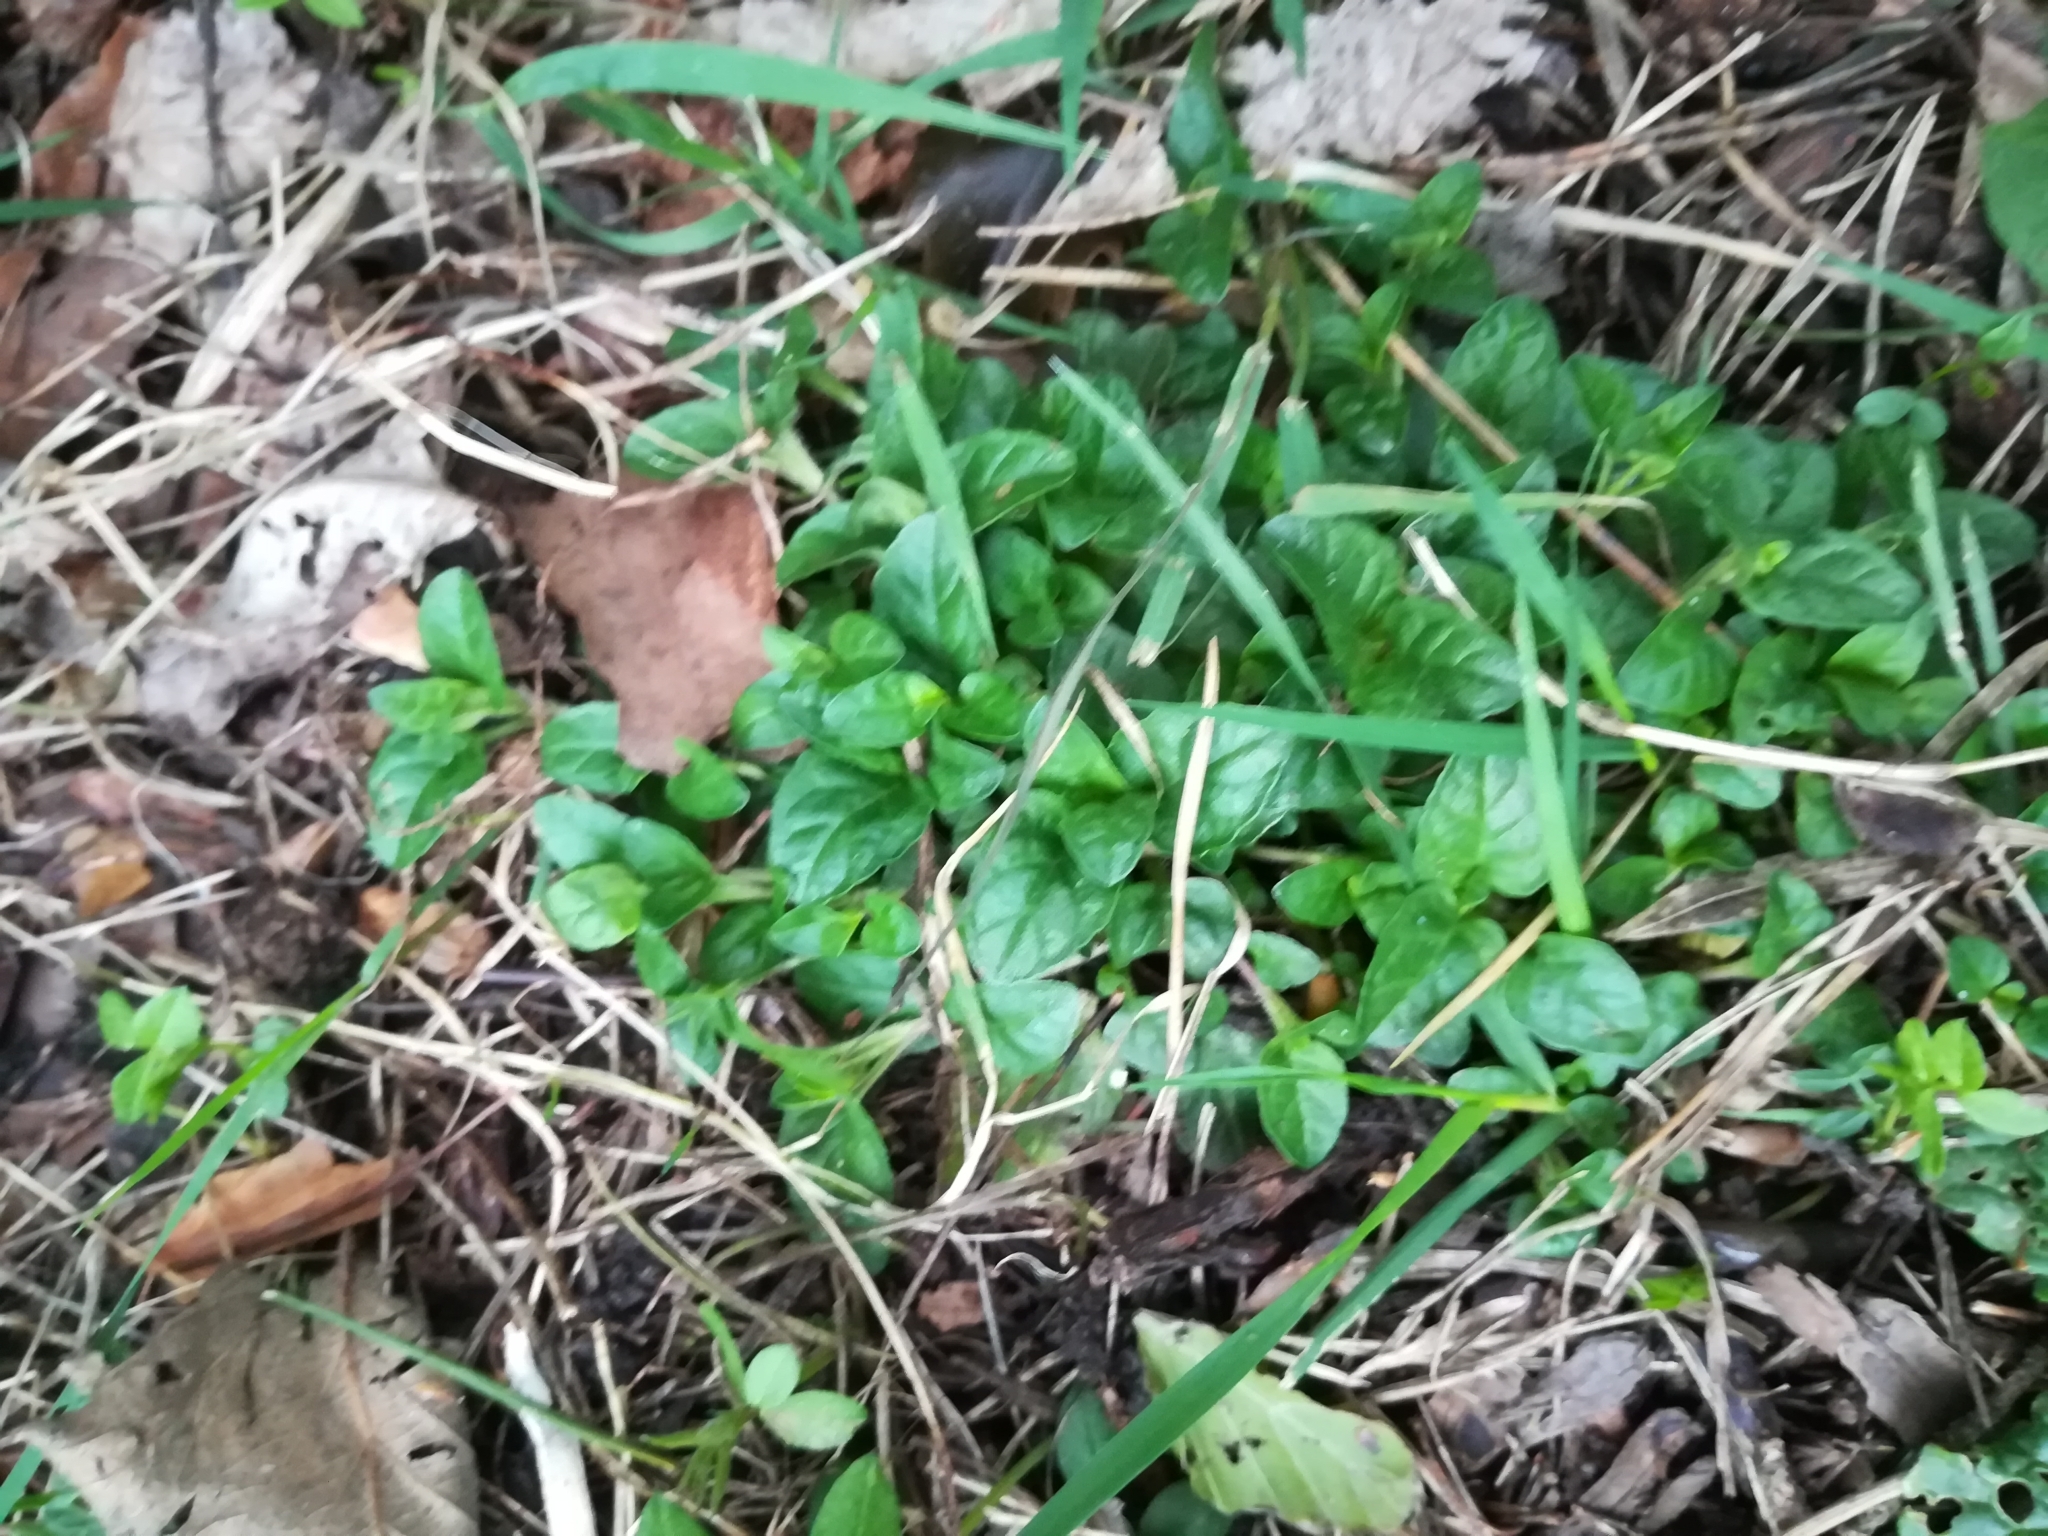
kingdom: Plantae
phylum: Tracheophyta
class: Magnoliopsida
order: Lamiales
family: Lamiaceae
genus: Prunella
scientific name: Prunella vulgaris
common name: Heal-all
